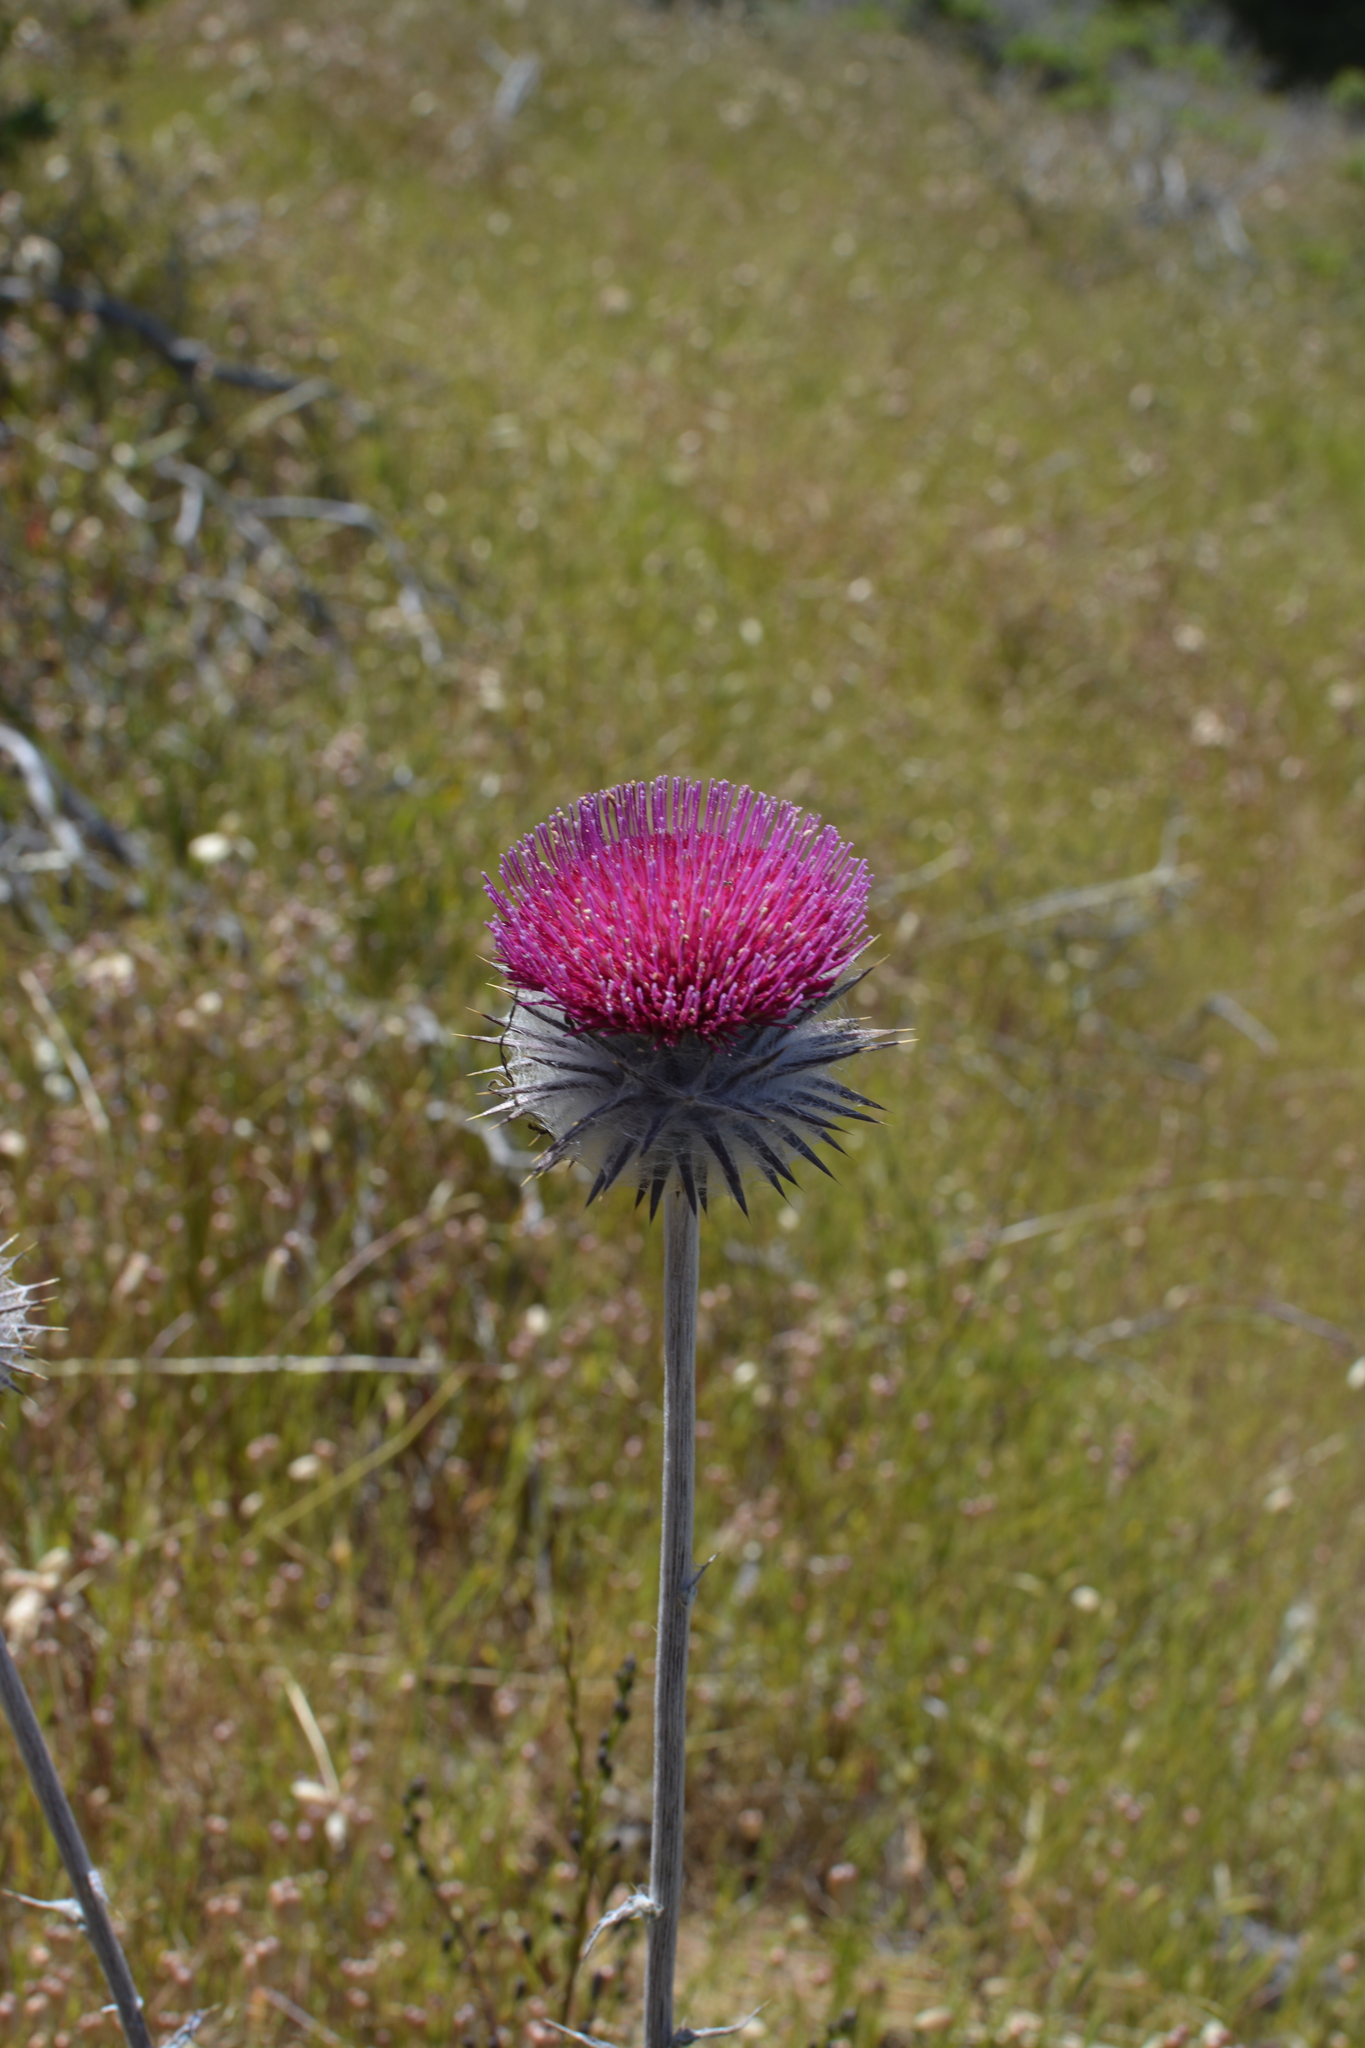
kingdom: Plantae
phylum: Tracheophyta
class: Magnoliopsida
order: Asterales
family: Asteraceae
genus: Cirsium
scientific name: Cirsium occidentale
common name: Western thistle
